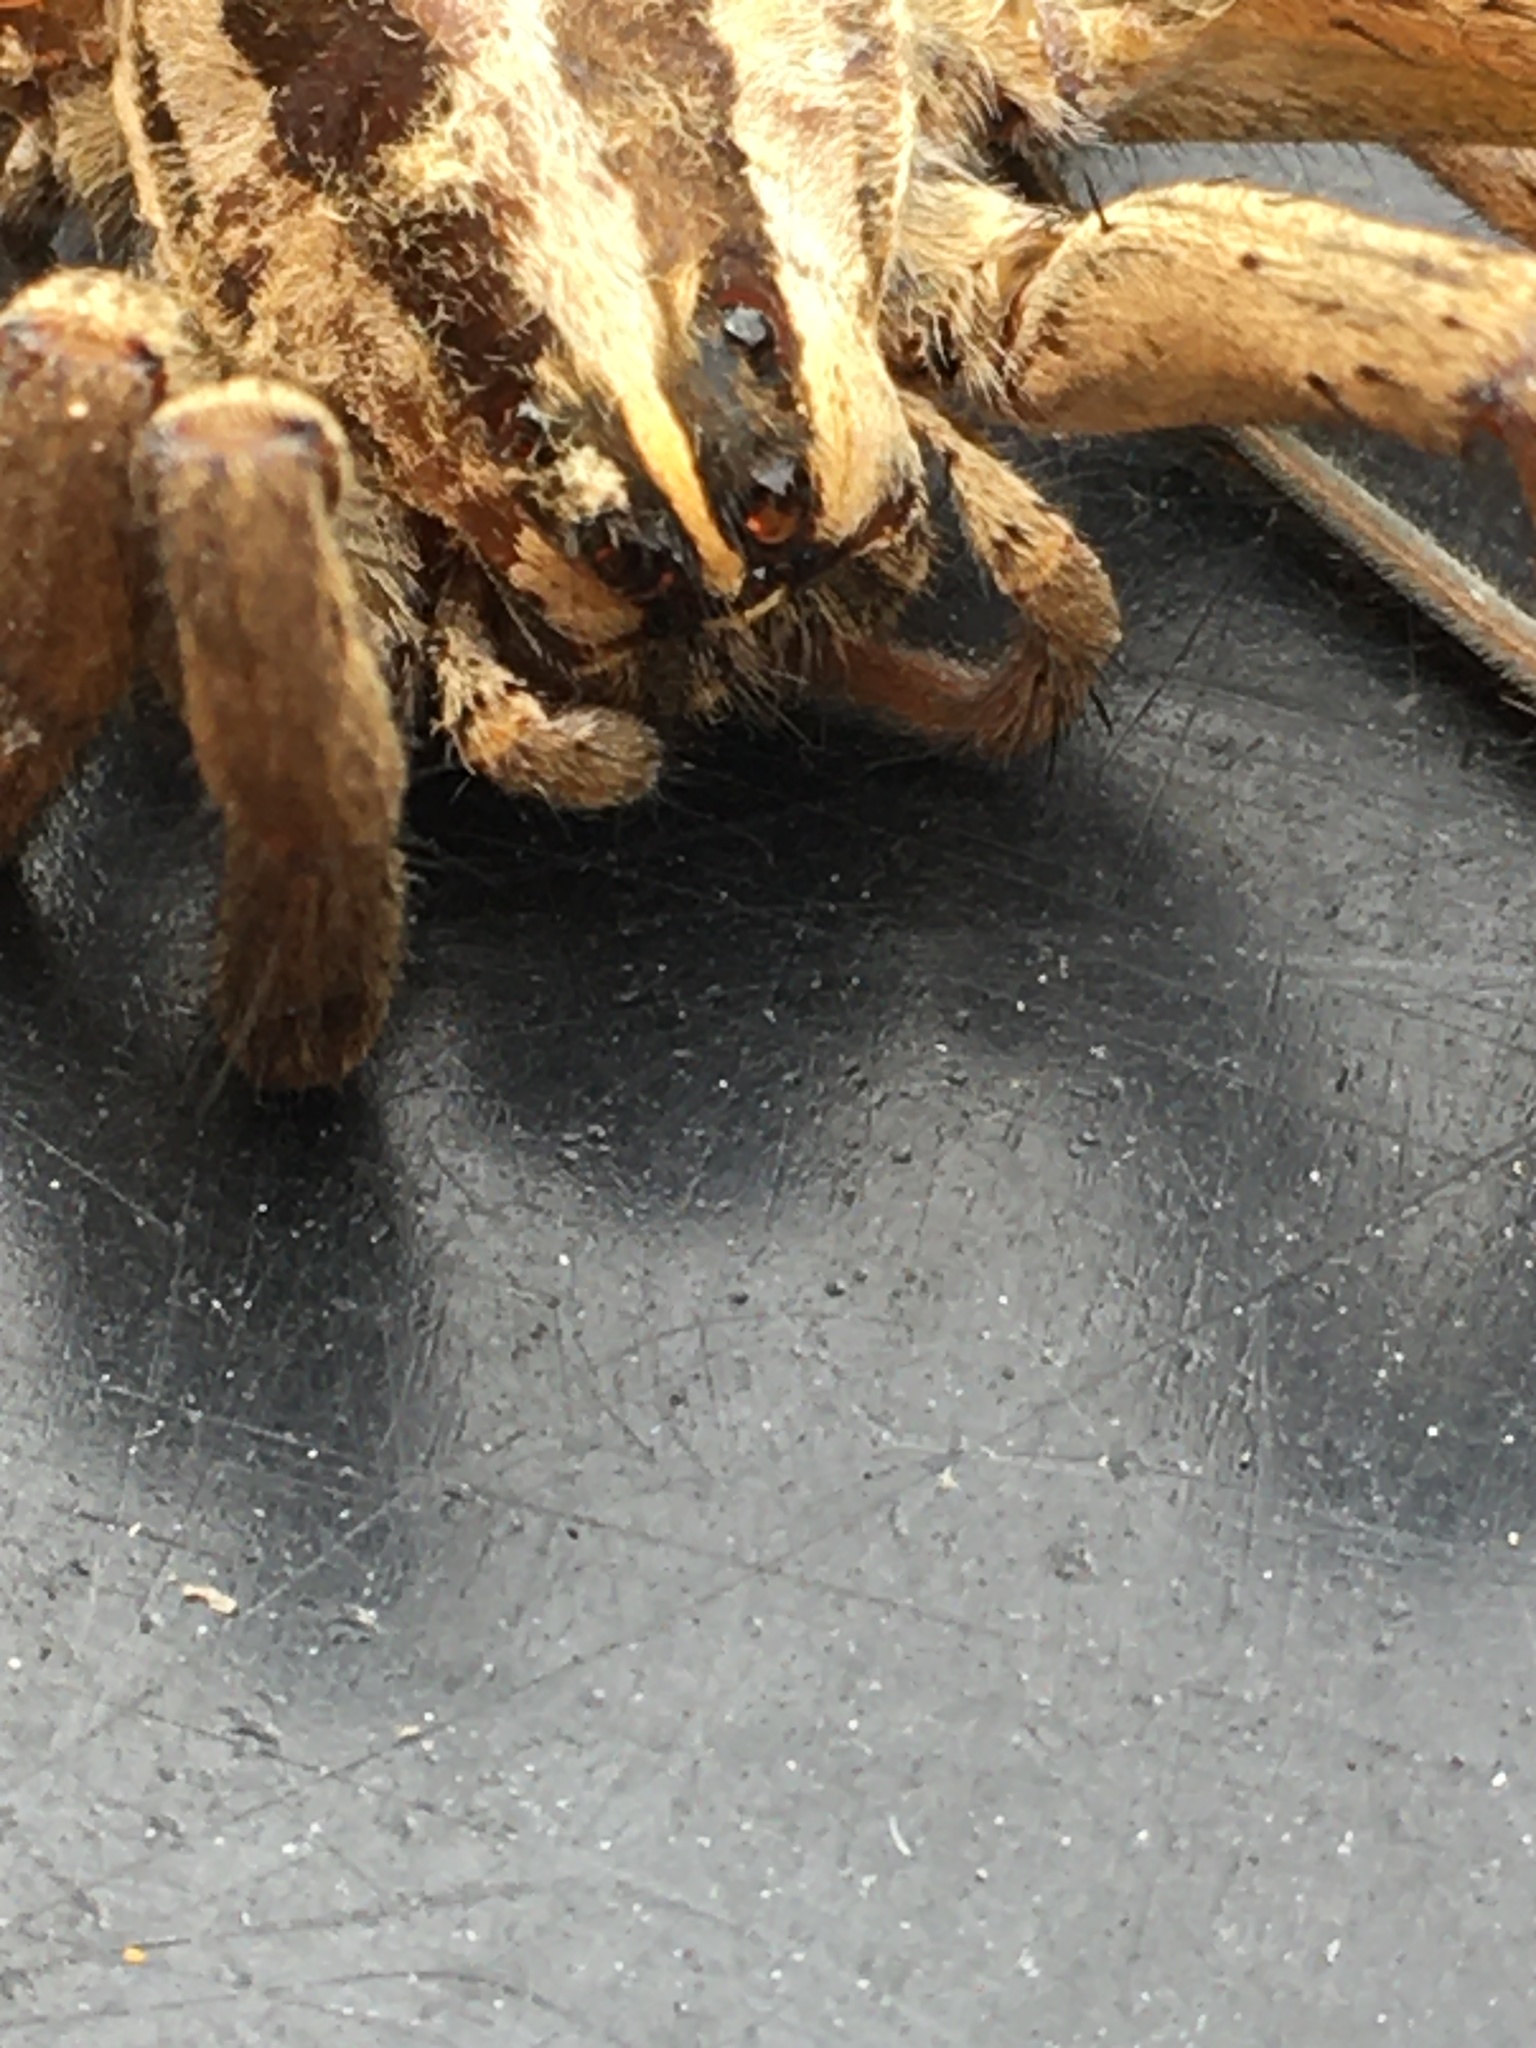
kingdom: Animalia
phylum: Arthropoda
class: Arachnida
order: Araneae
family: Lycosidae
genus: Rabidosa
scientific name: Rabidosa rabida
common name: Rabid wolf spider
